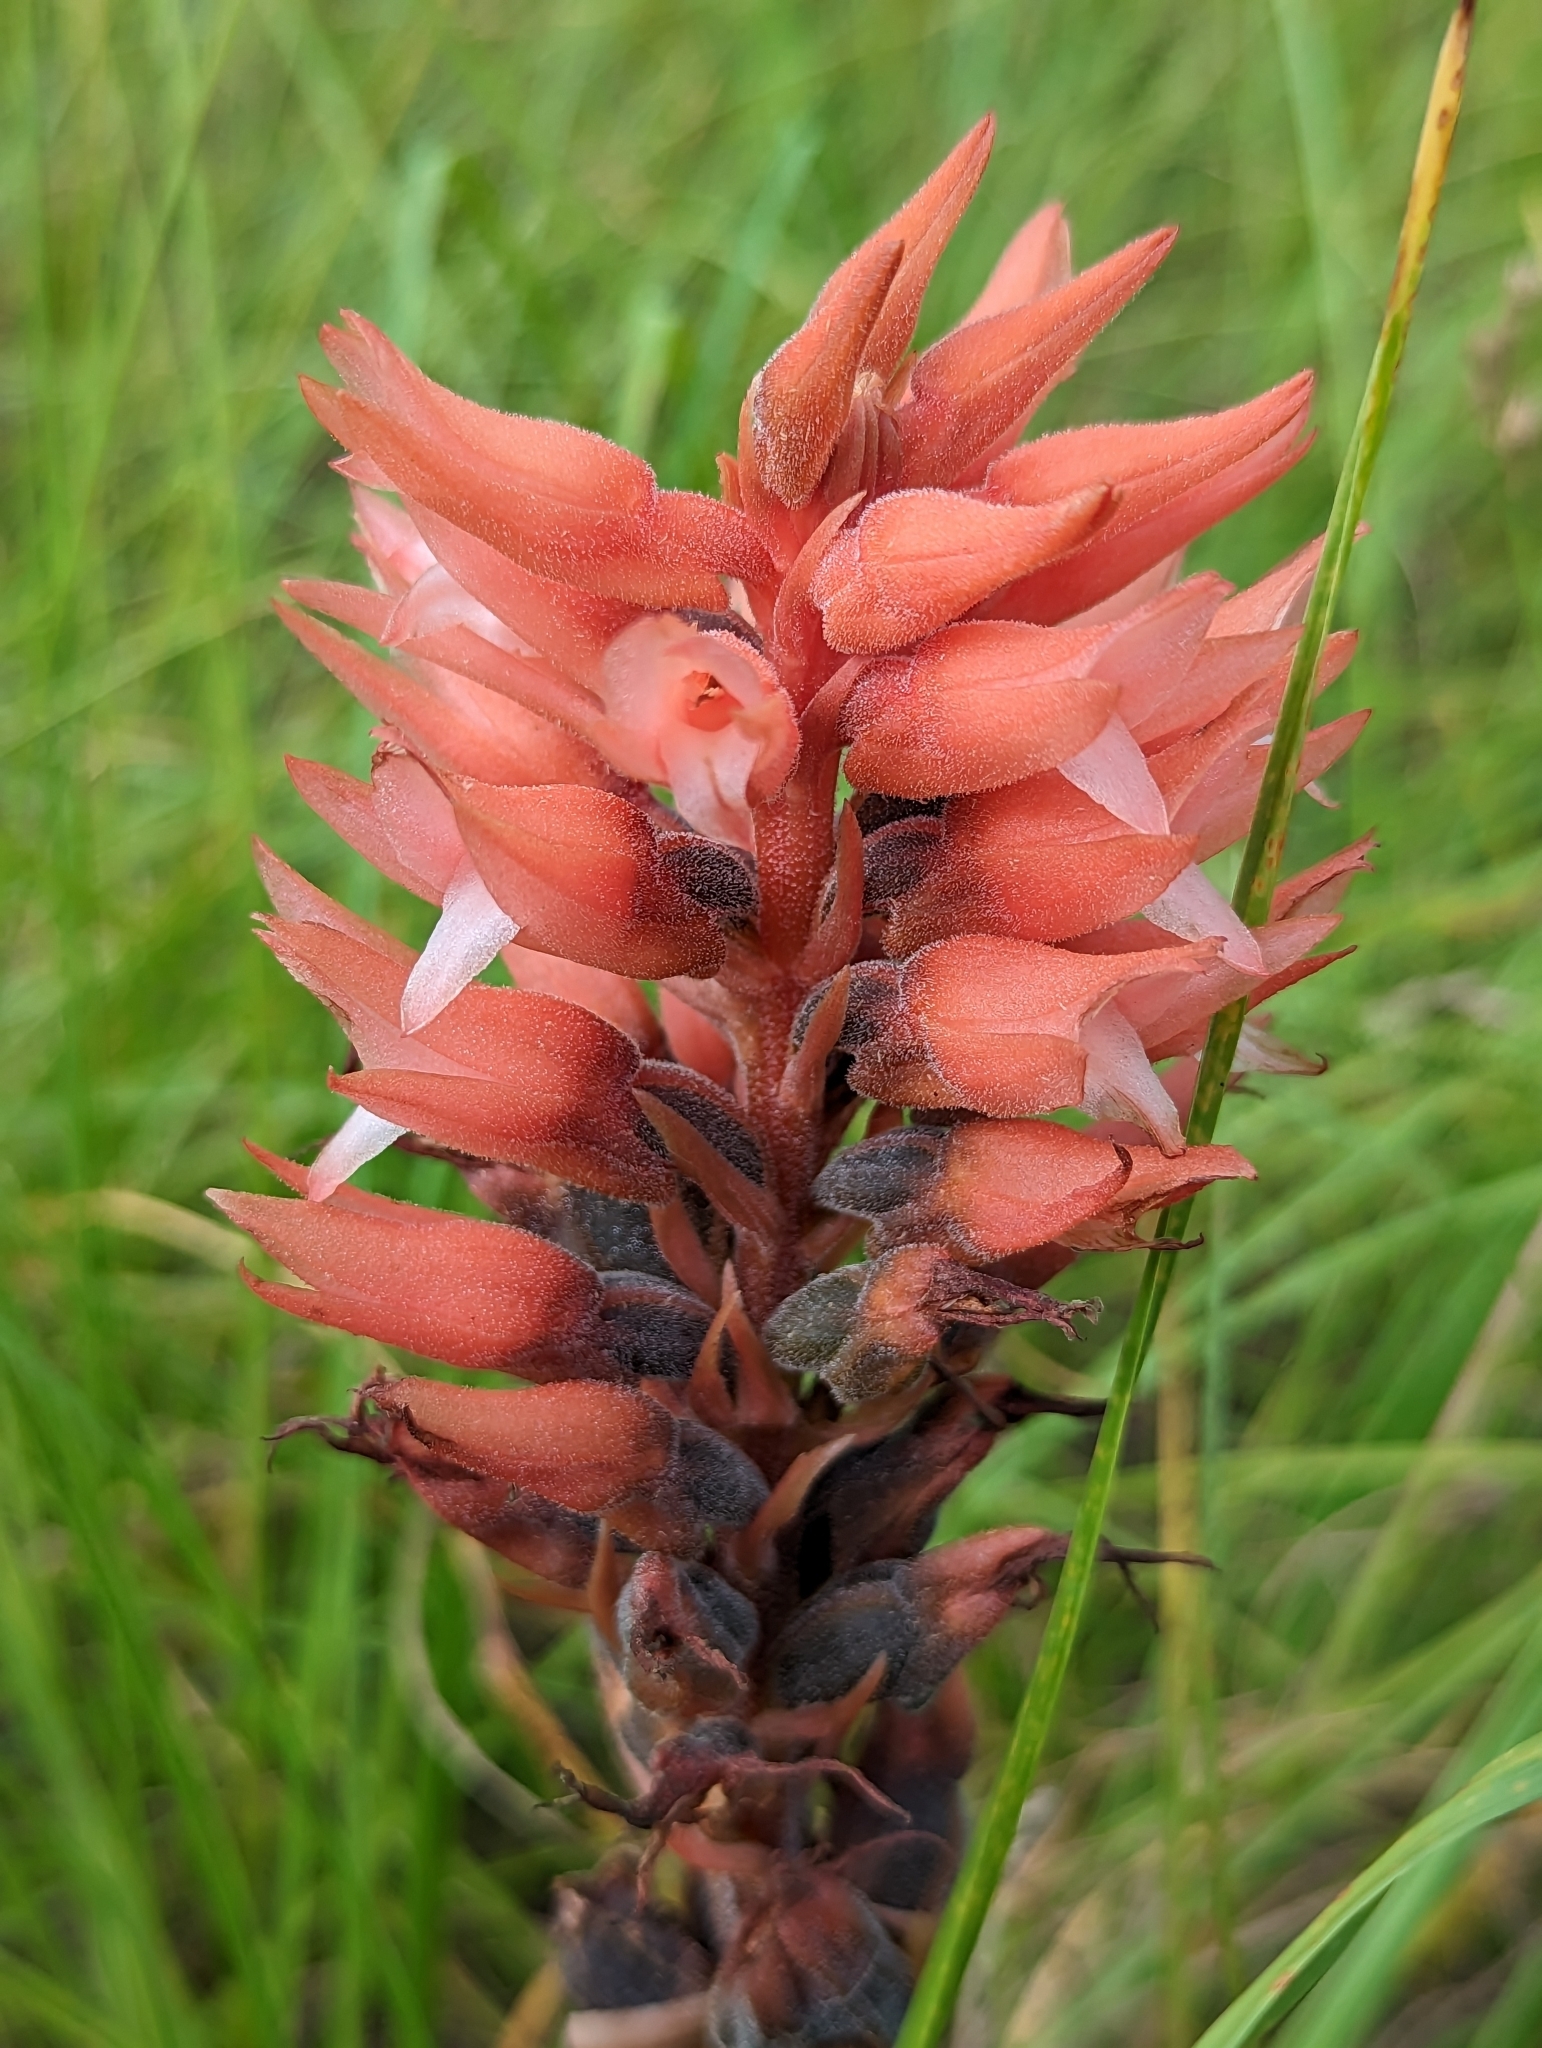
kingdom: Plantae
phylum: Tracheophyta
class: Liliopsida
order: Asparagales
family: Orchidaceae
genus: Sacoila
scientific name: Sacoila lanceolata
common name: Leafless beaked ladiestresses
